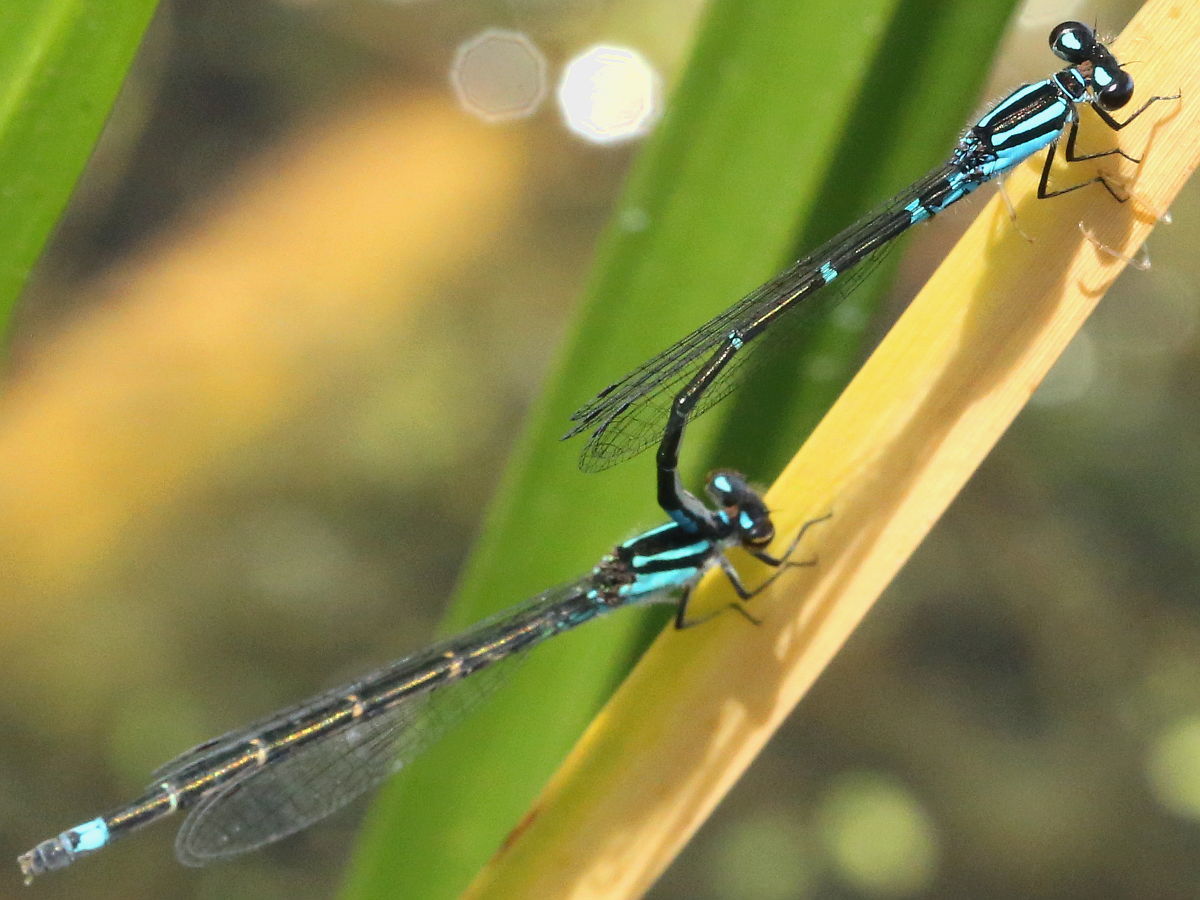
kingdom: Animalia
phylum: Arthropoda
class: Insecta
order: Odonata
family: Coenagrionidae
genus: Enallagma
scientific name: Enallagma geminatum
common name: Skimming bluet
